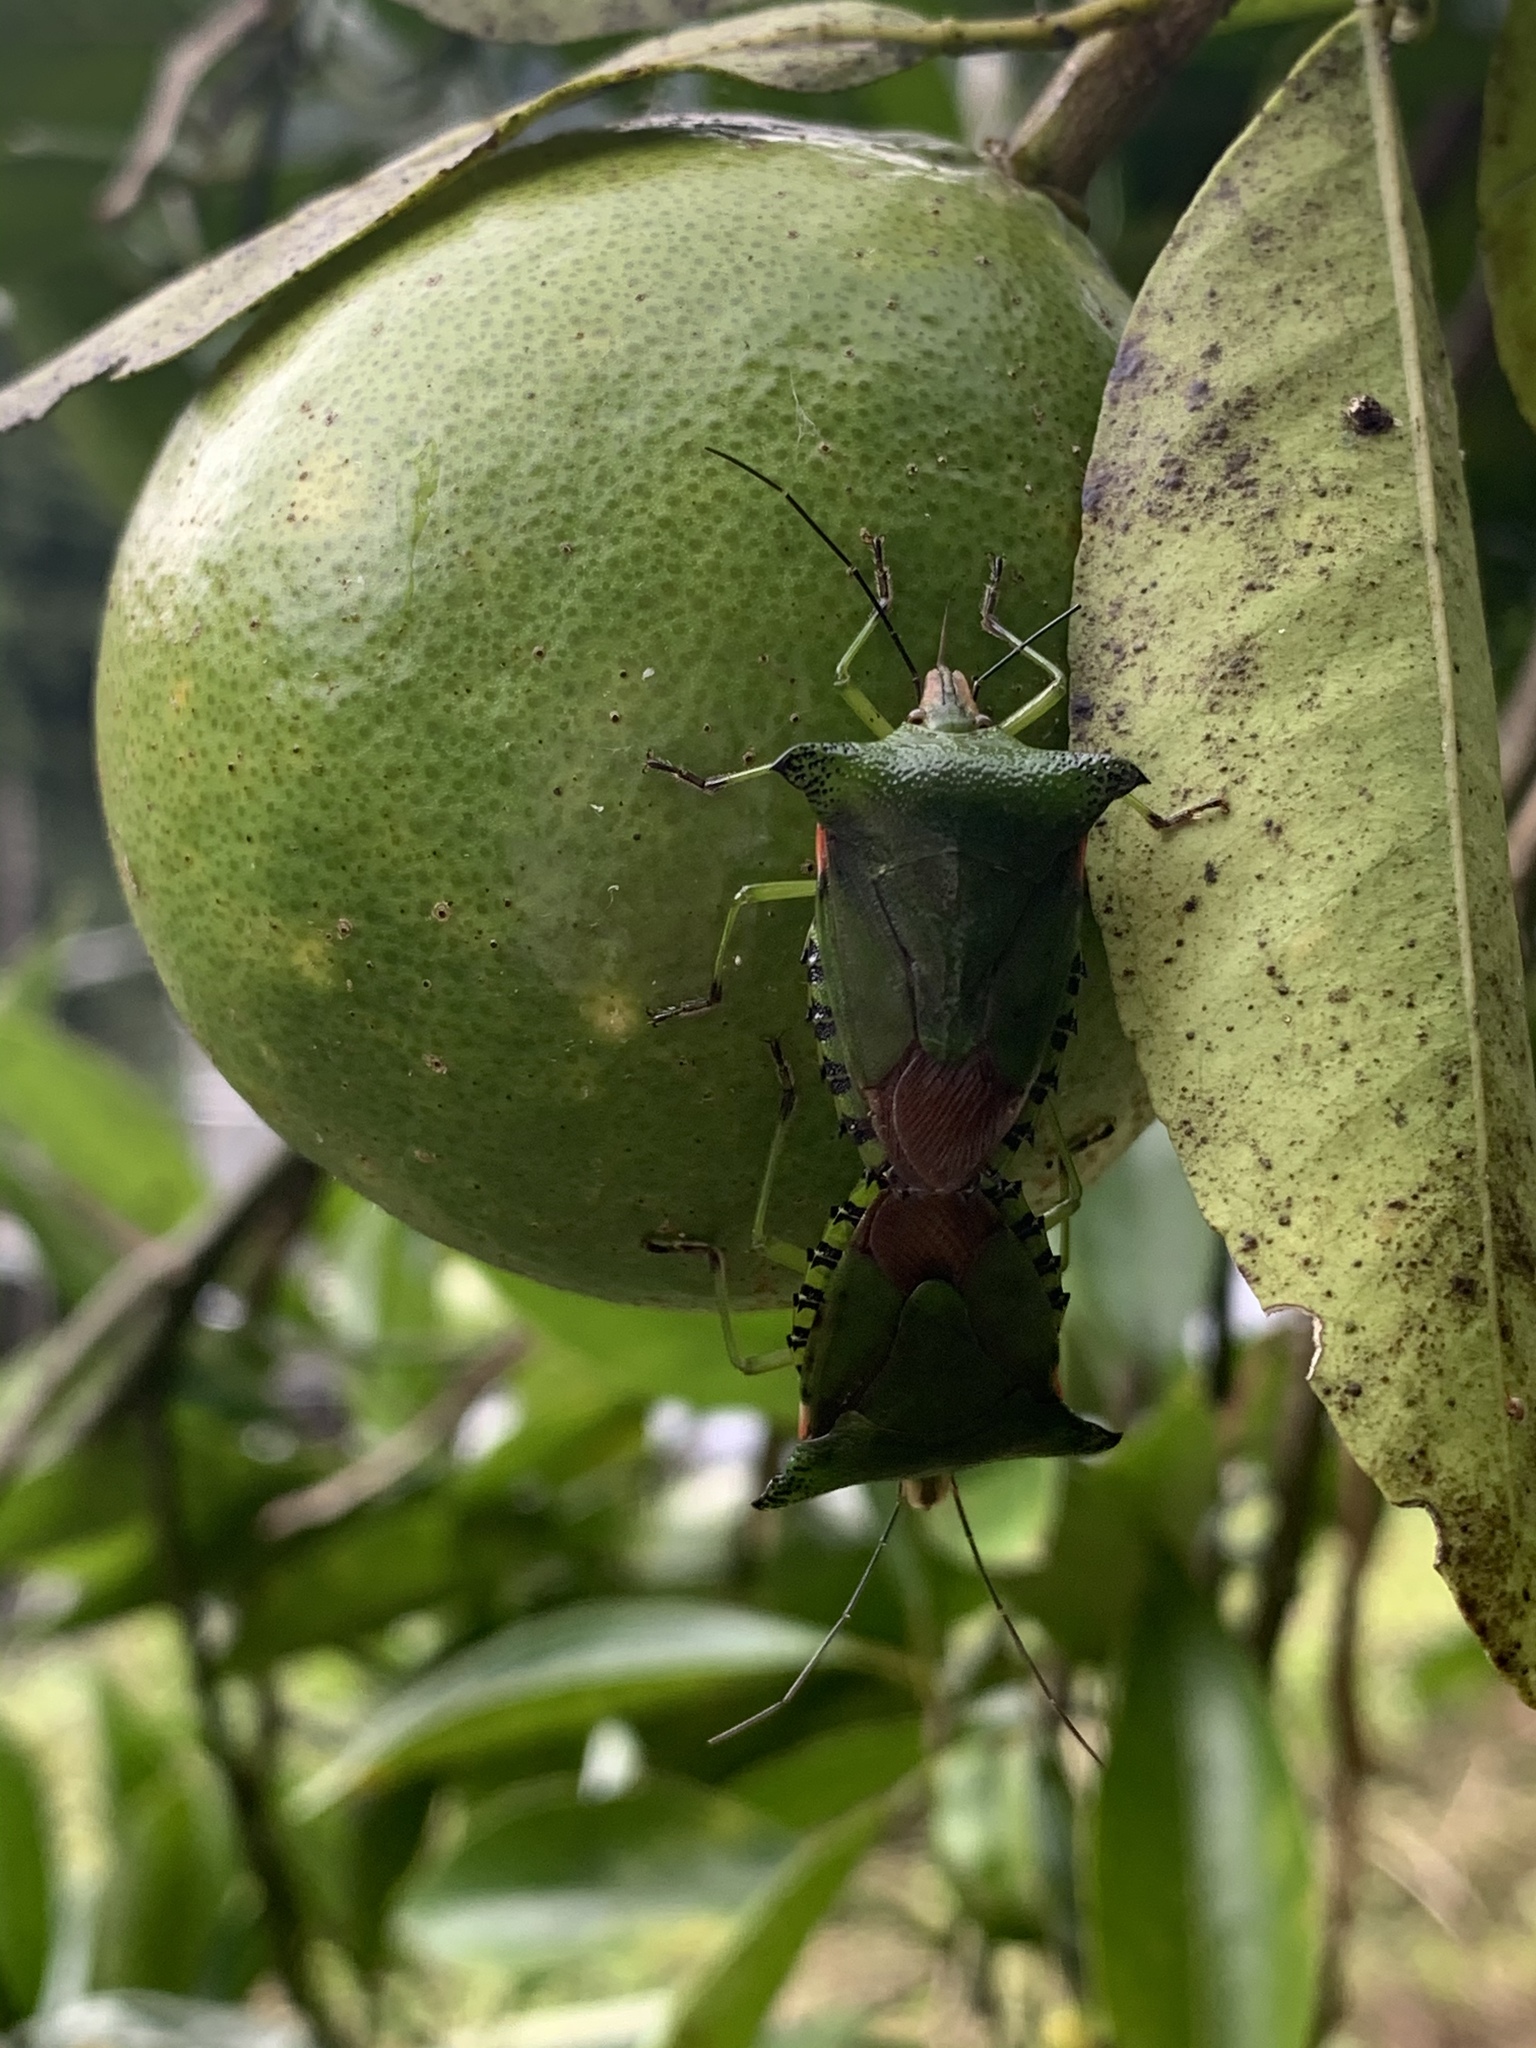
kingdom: Animalia
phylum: Arthropoda
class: Insecta
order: Hemiptera
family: Pentatomidae
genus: Rhynchocoris
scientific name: Rhynchocoris humeralis
